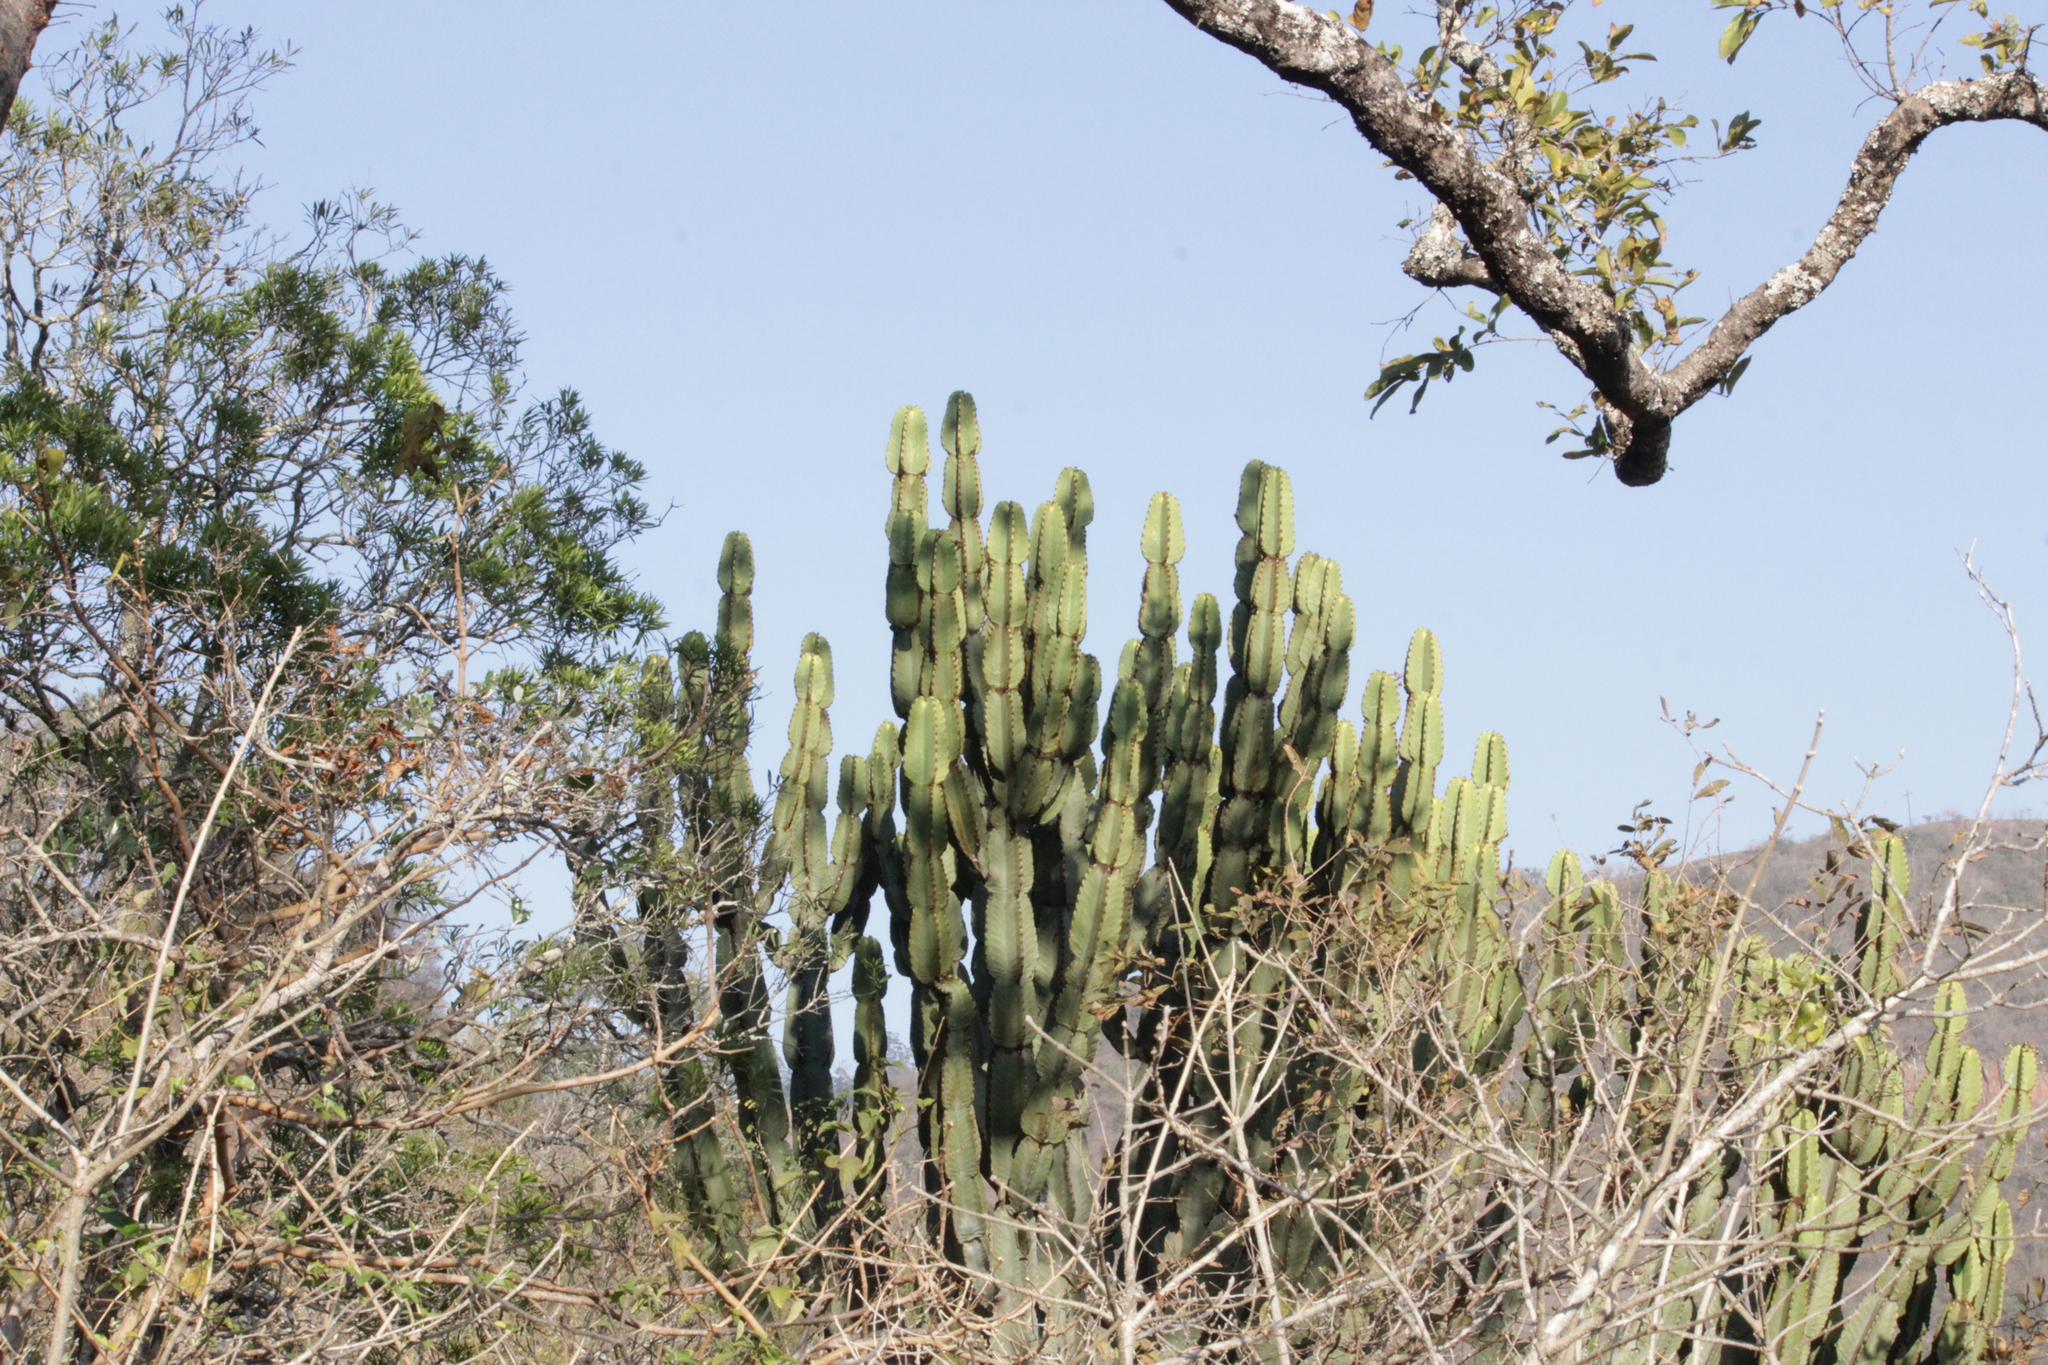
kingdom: Plantae
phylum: Tracheophyta
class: Magnoliopsida
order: Malpighiales
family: Euphorbiaceae
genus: Euphorbia
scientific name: Euphorbia ingens
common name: Cactus spurge
